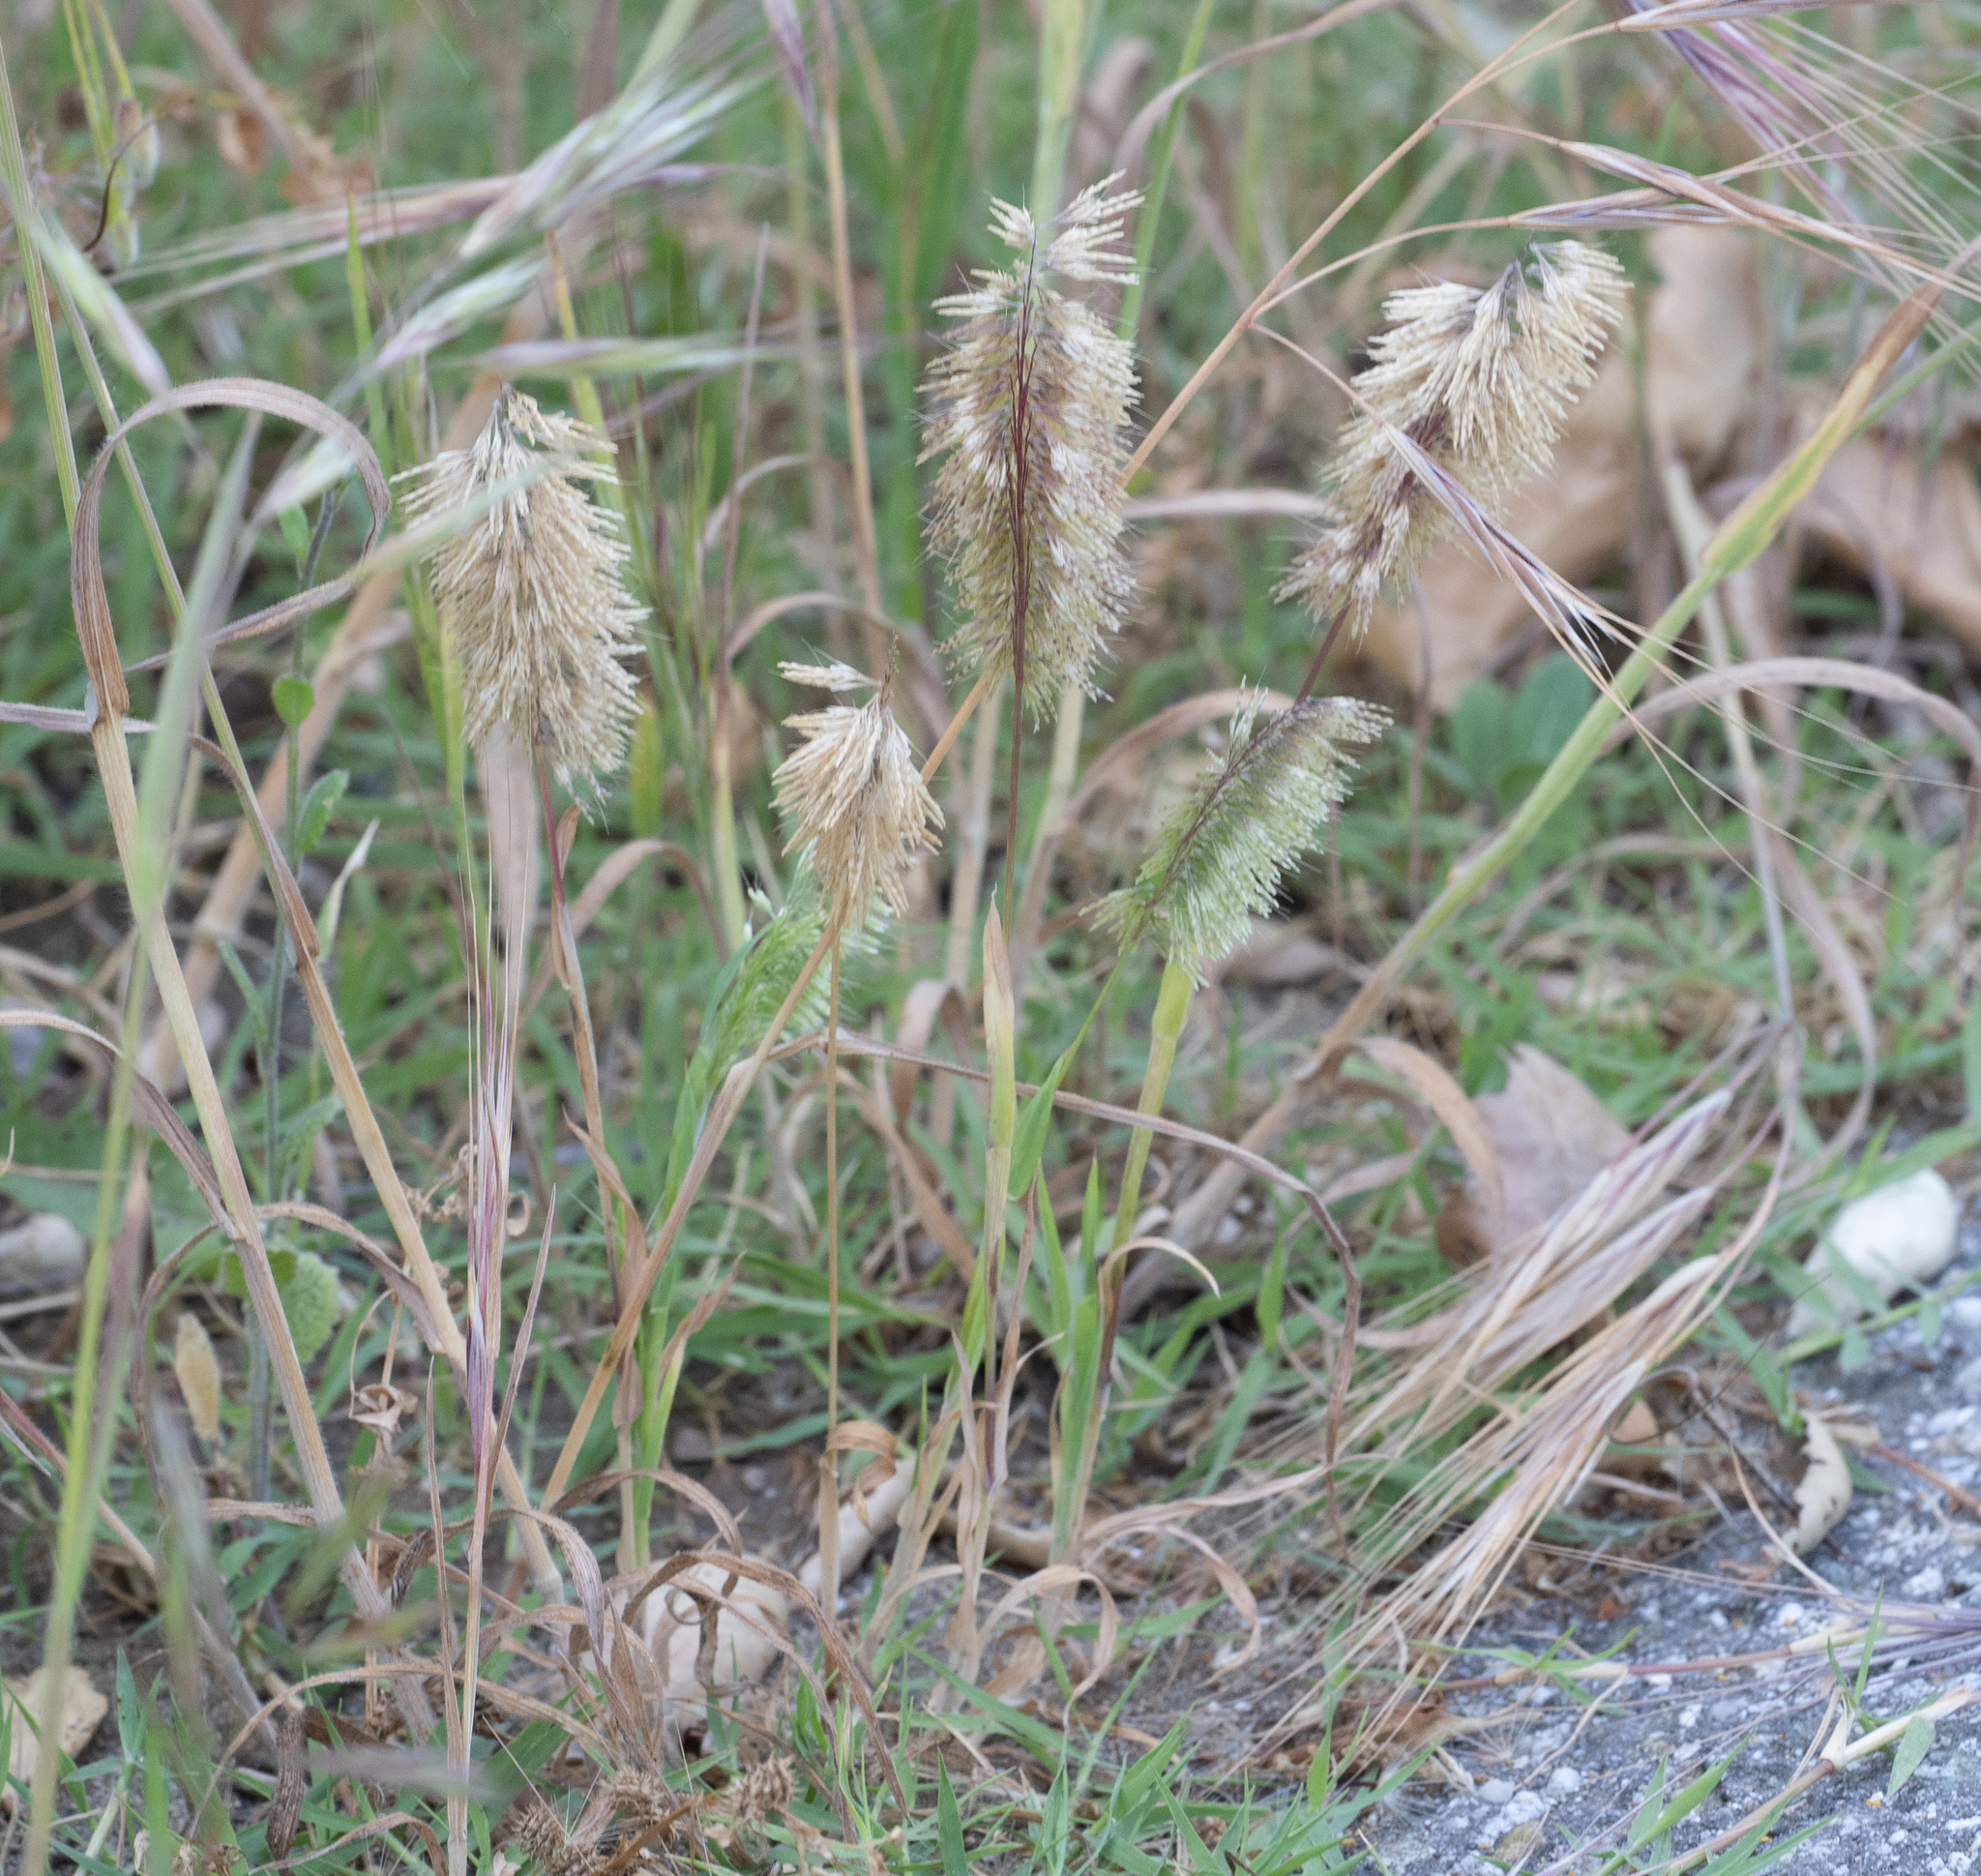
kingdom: Plantae
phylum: Tracheophyta
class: Liliopsida
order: Poales
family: Poaceae
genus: Lamarckia
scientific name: Lamarckia aurea
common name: Golden dog's-tail
